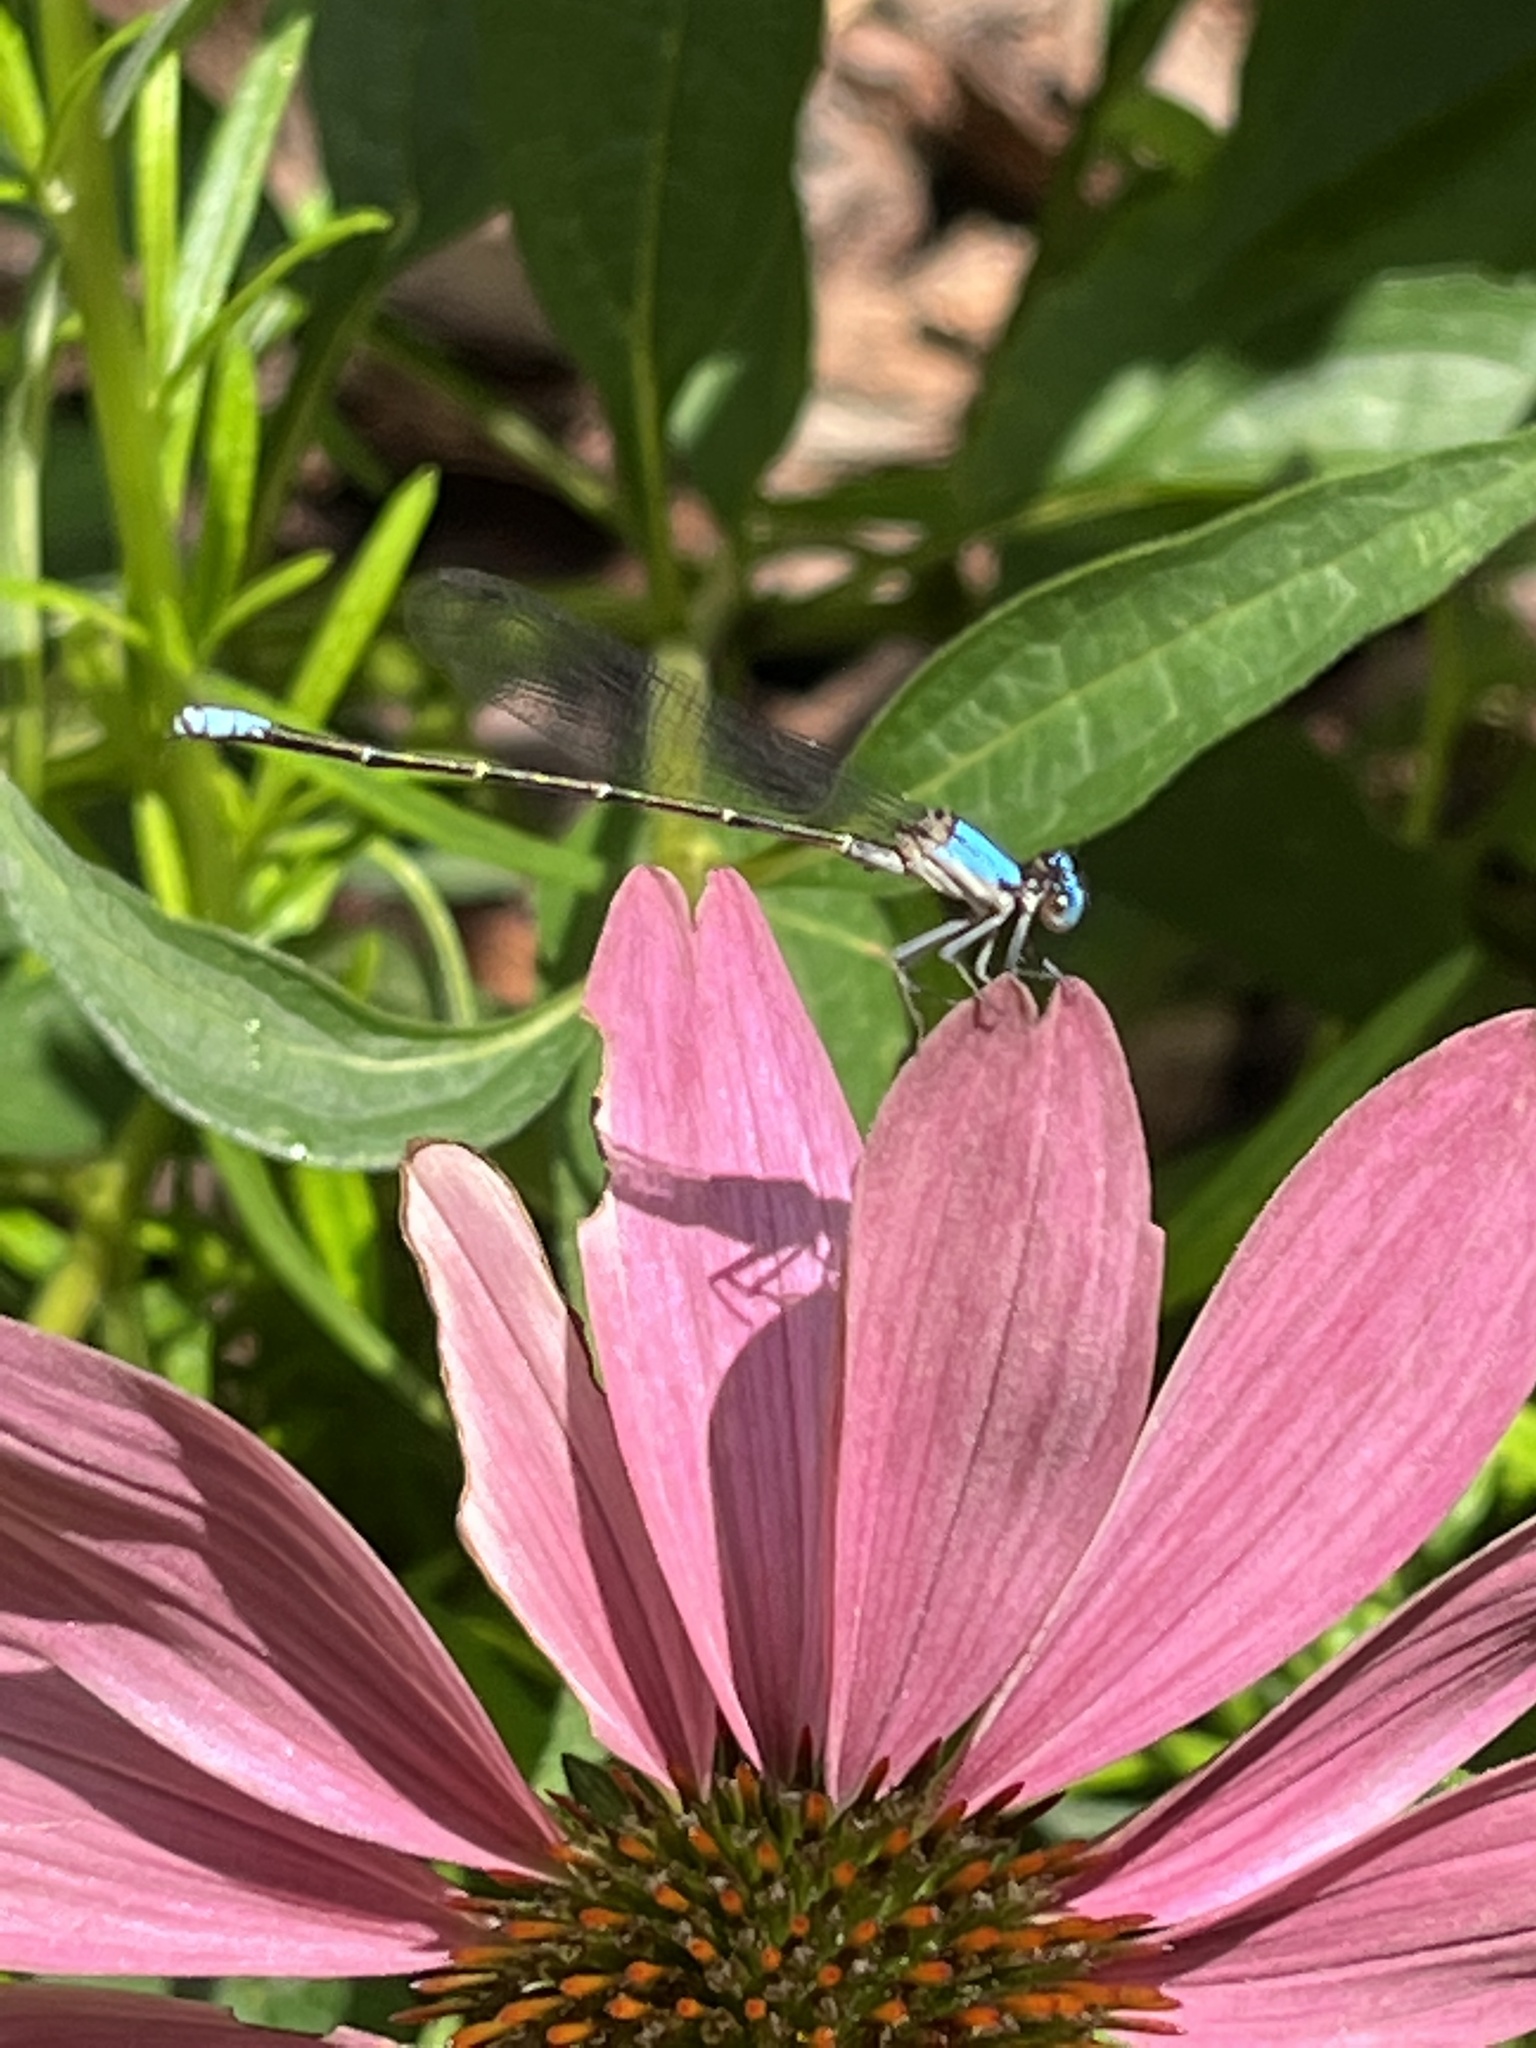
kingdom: Animalia
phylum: Arthropoda
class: Insecta
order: Odonata
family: Coenagrionidae
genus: Argia
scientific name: Argia apicalis
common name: Blue-fronted dancer
